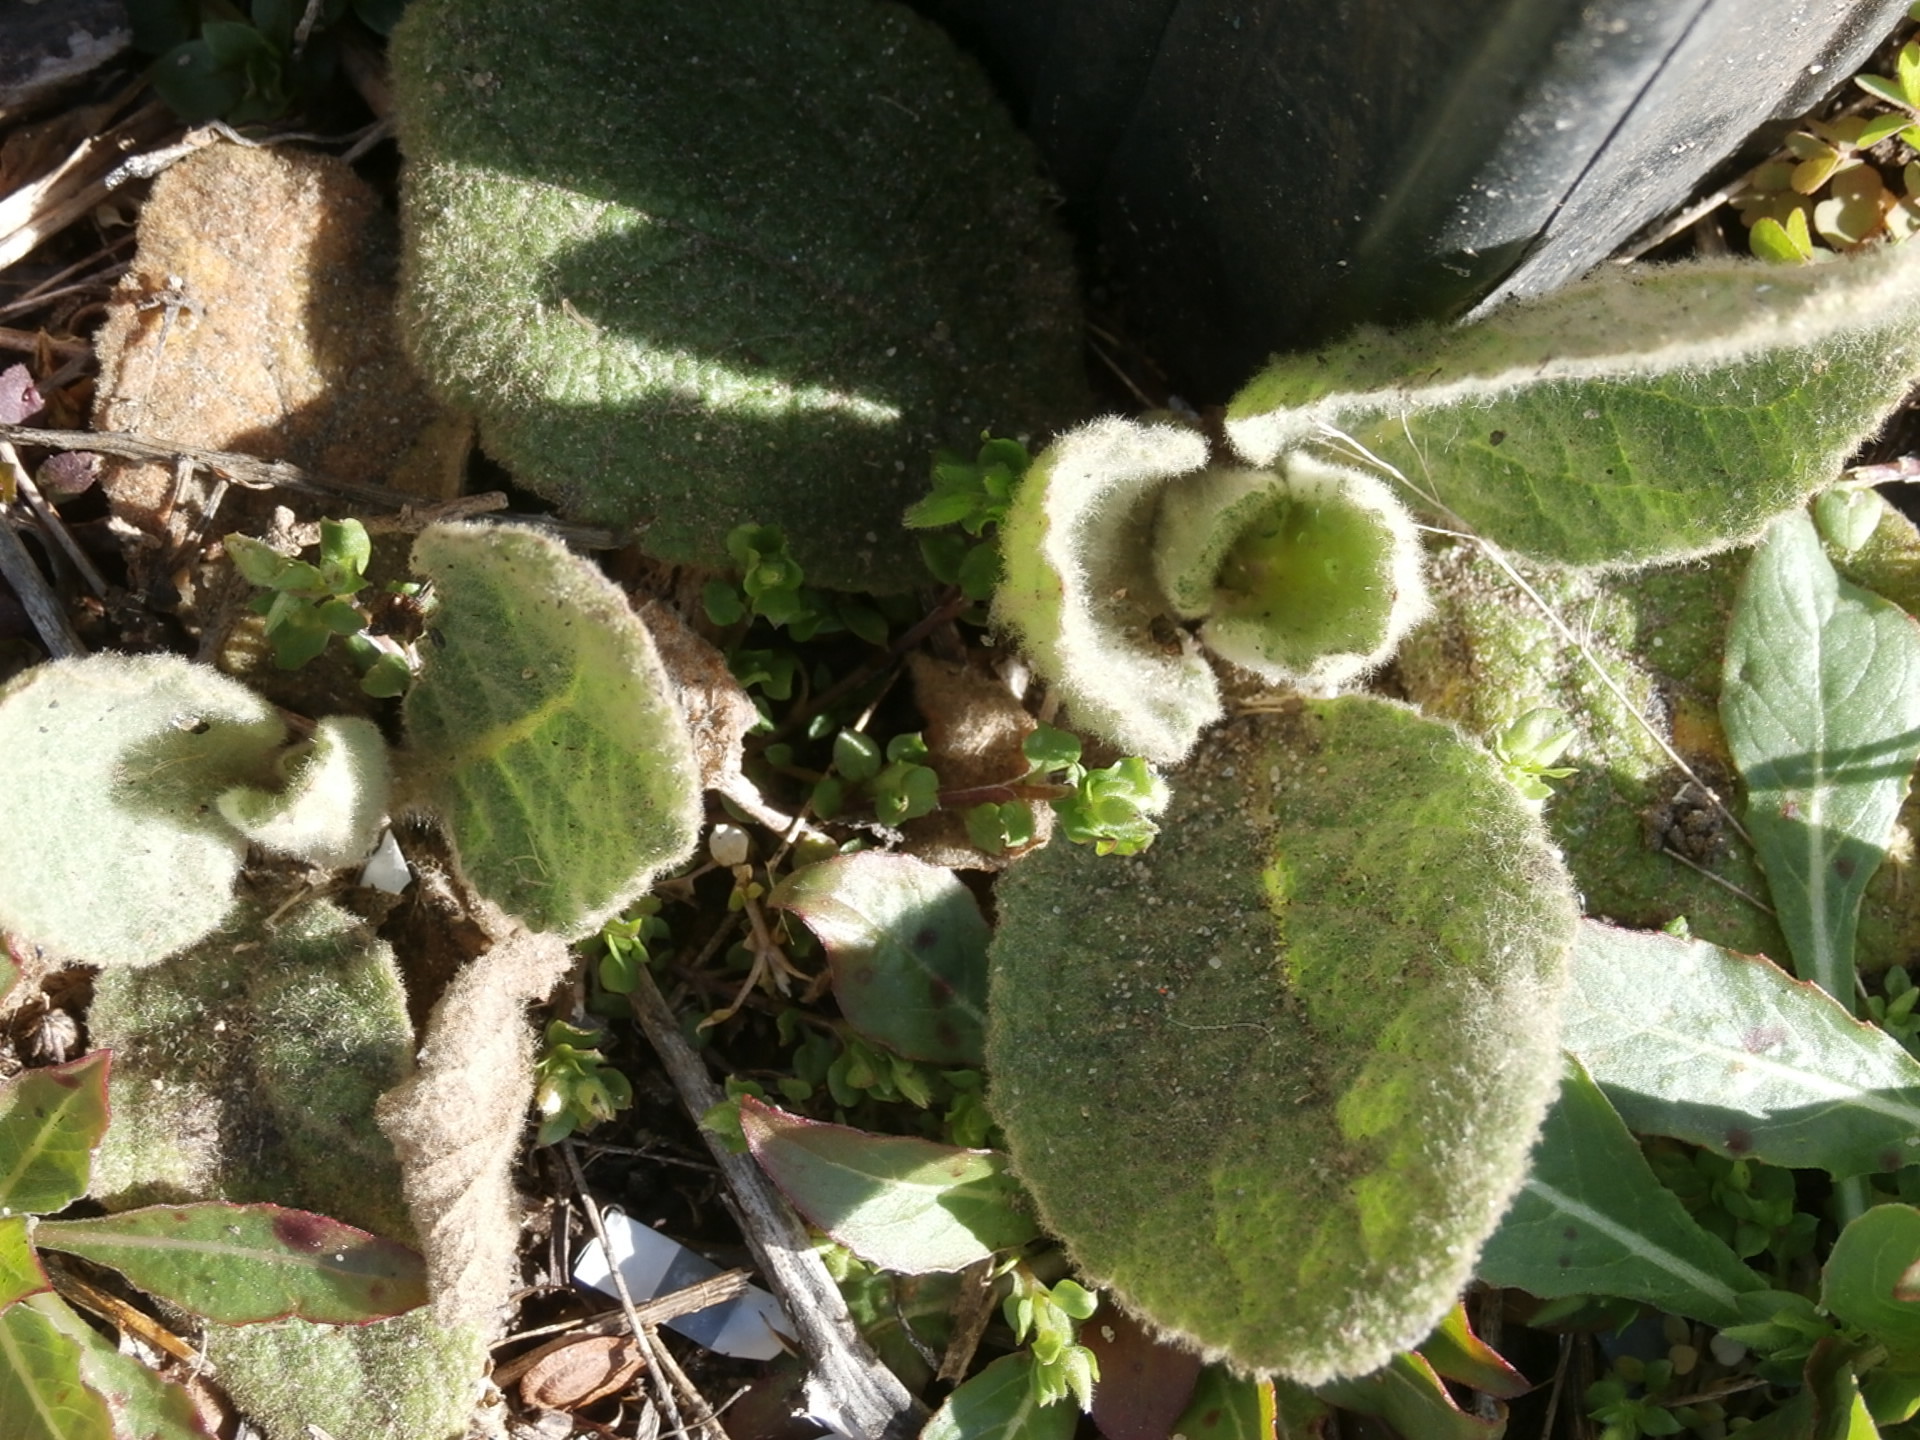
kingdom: Plantae
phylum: Tracheophyta
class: Magnoliopsida
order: Lamiales
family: Scrophulariaceae
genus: Verbascum
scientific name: Verbascum thapsus
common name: Common mullein
